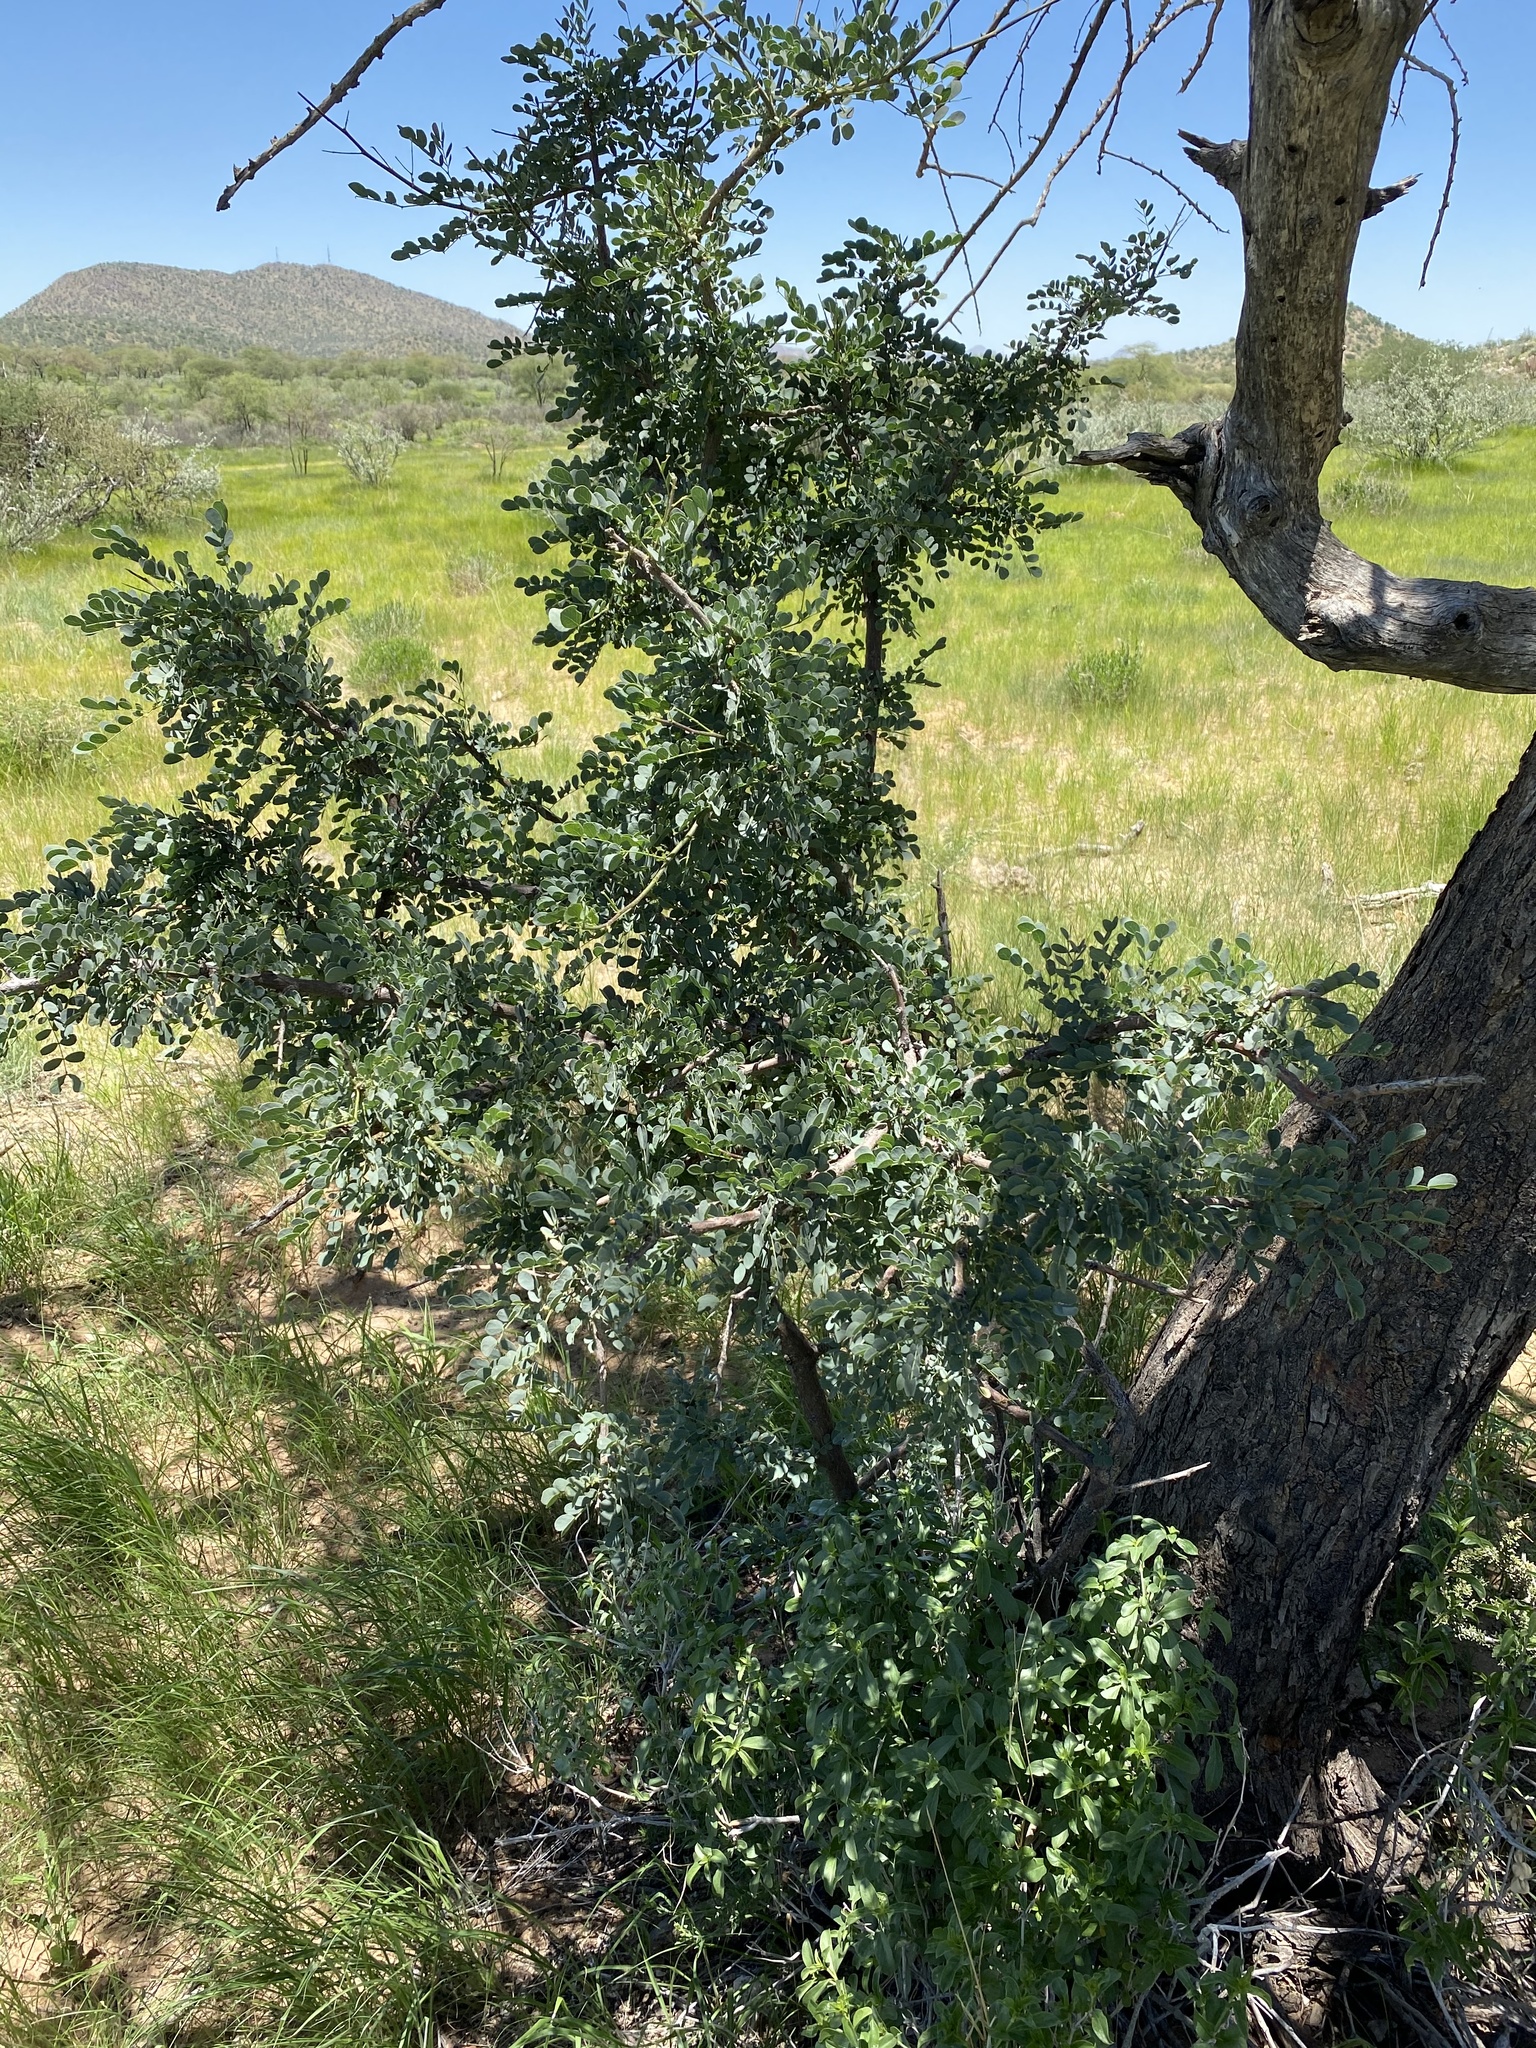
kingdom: Plantae
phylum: Tracheophyta
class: Magnoliopsida
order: Fabales
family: Fabaceae
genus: Albizia
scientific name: Albizia anthelmintica
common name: Worm-bark false-thorn
